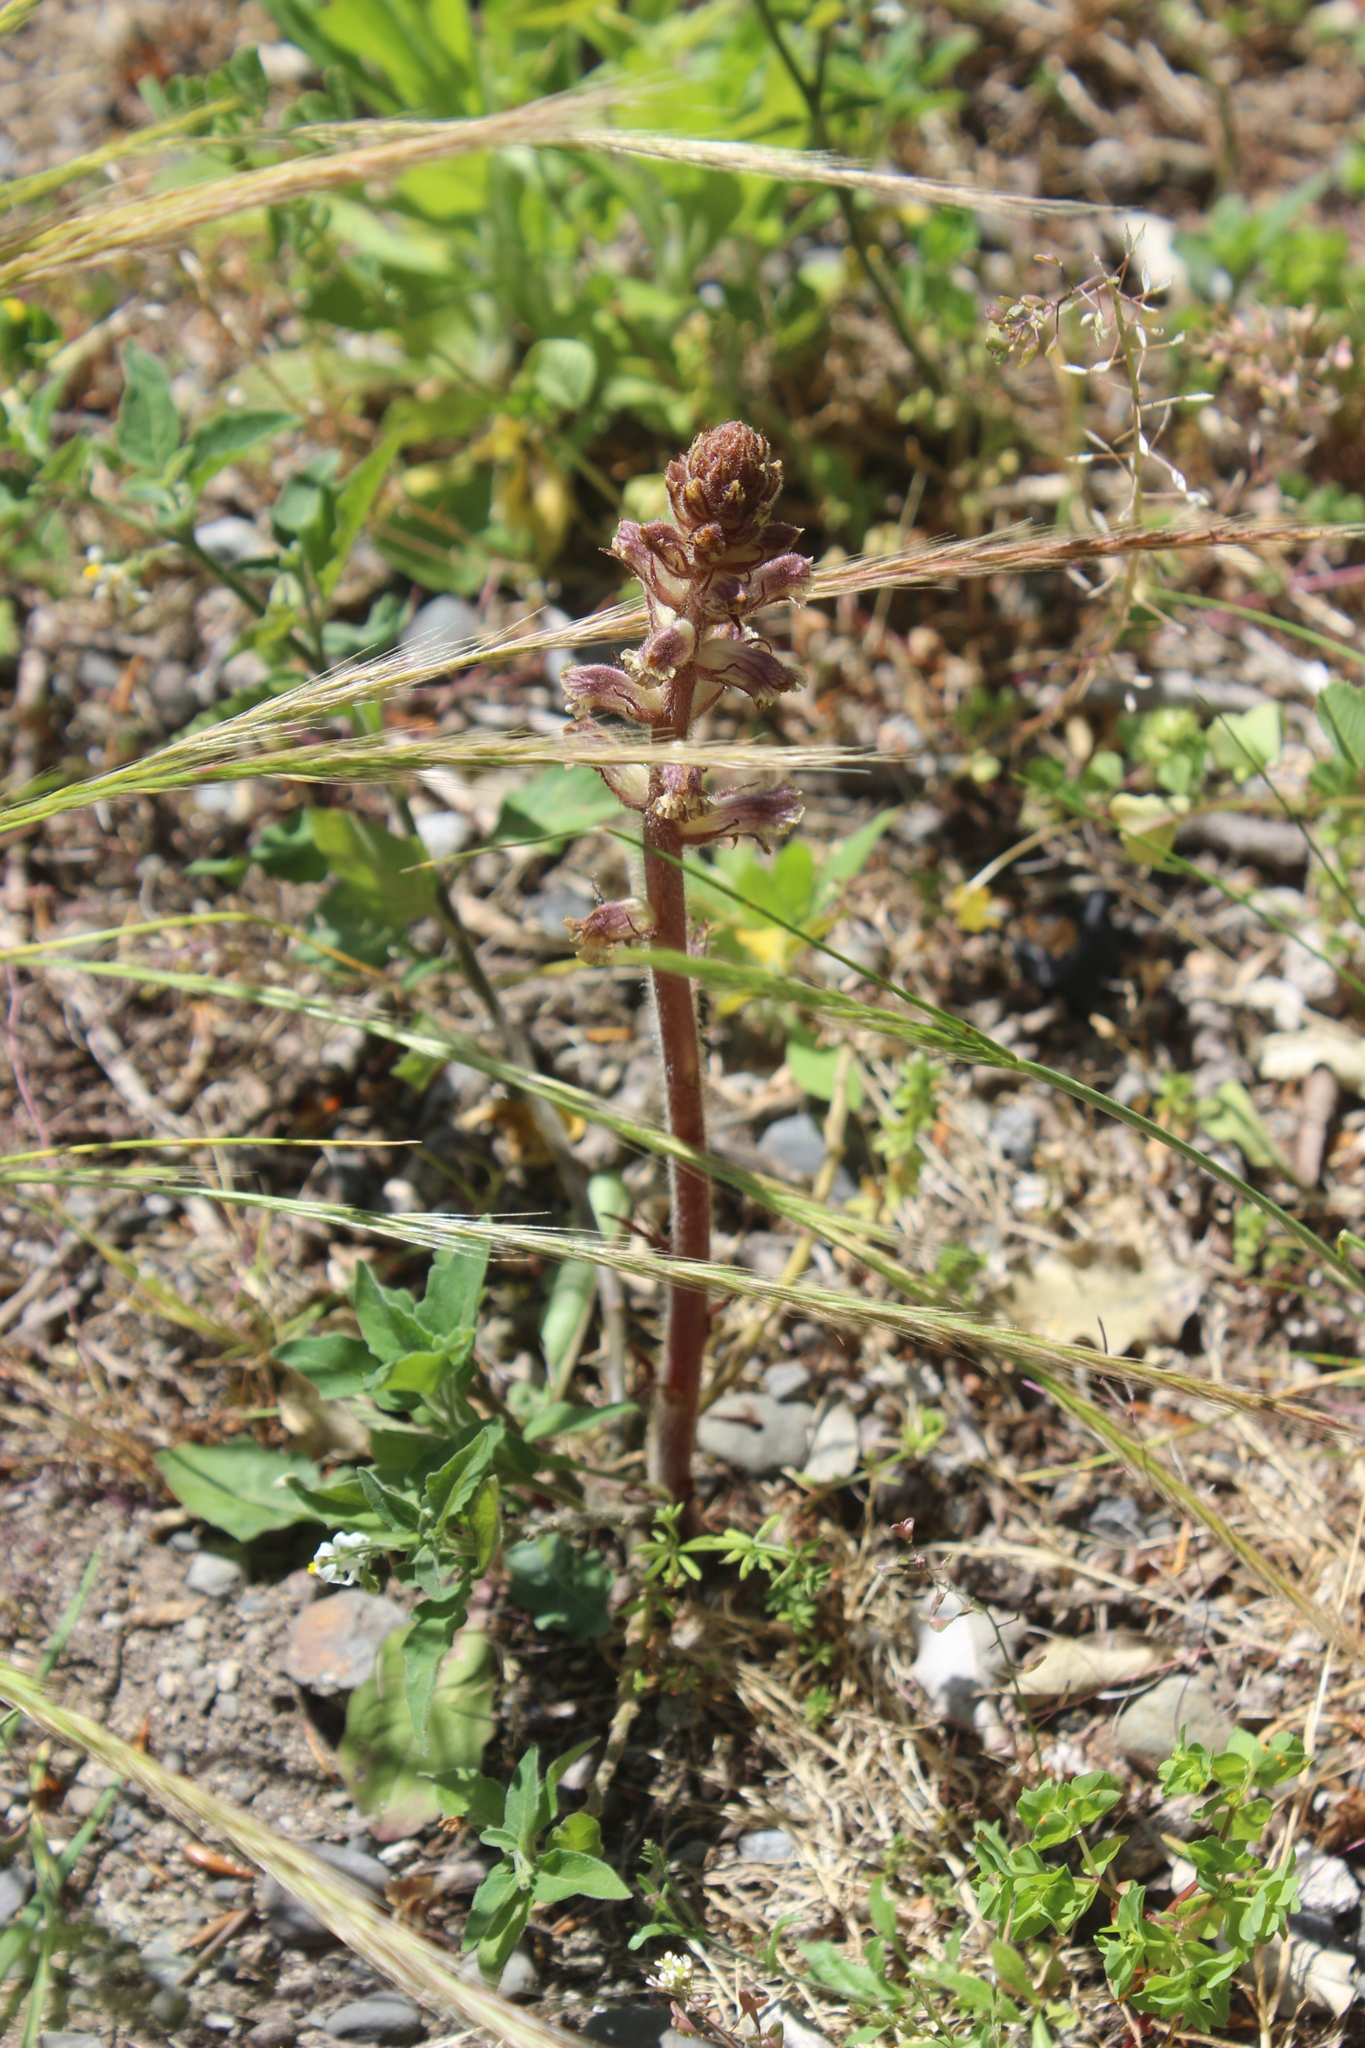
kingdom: Plantae
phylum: Tracheophyta
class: Magnoliopsida
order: Lamiales
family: Orobanchaceae
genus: Orobanche
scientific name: Orobanche minor
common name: Common broomrape
